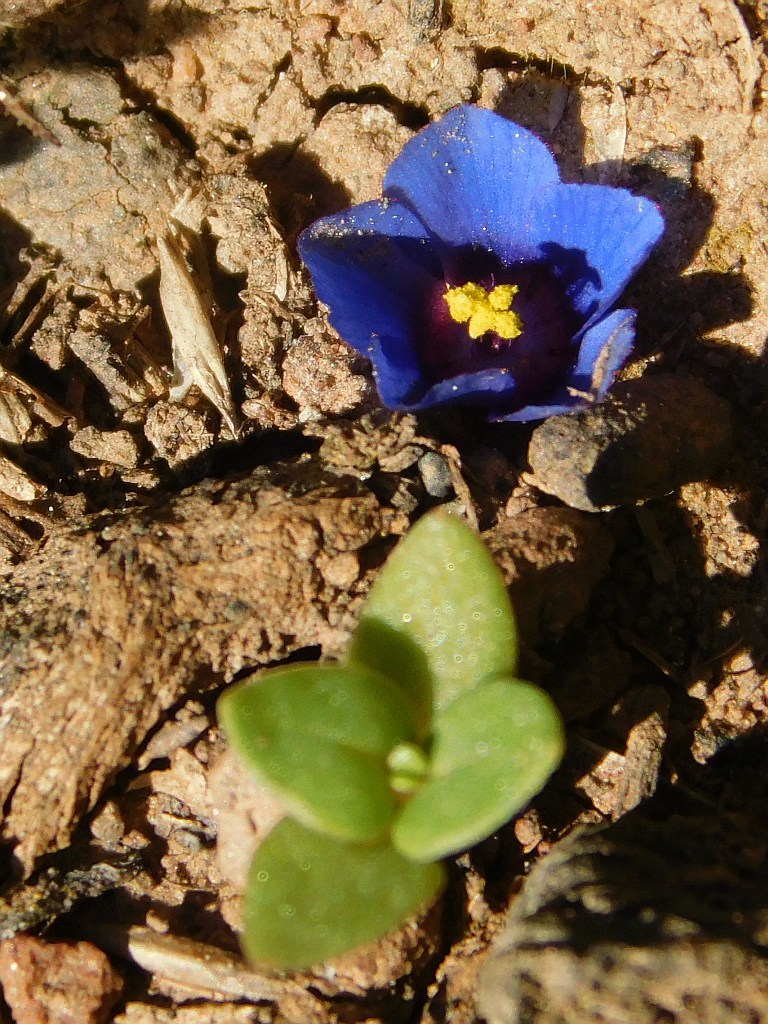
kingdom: Plantae
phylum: Tracheophyta
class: Magnoliopsida
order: Ericales
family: Primulaceae
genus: Lysimachia
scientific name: Lysimachia loeflingii
